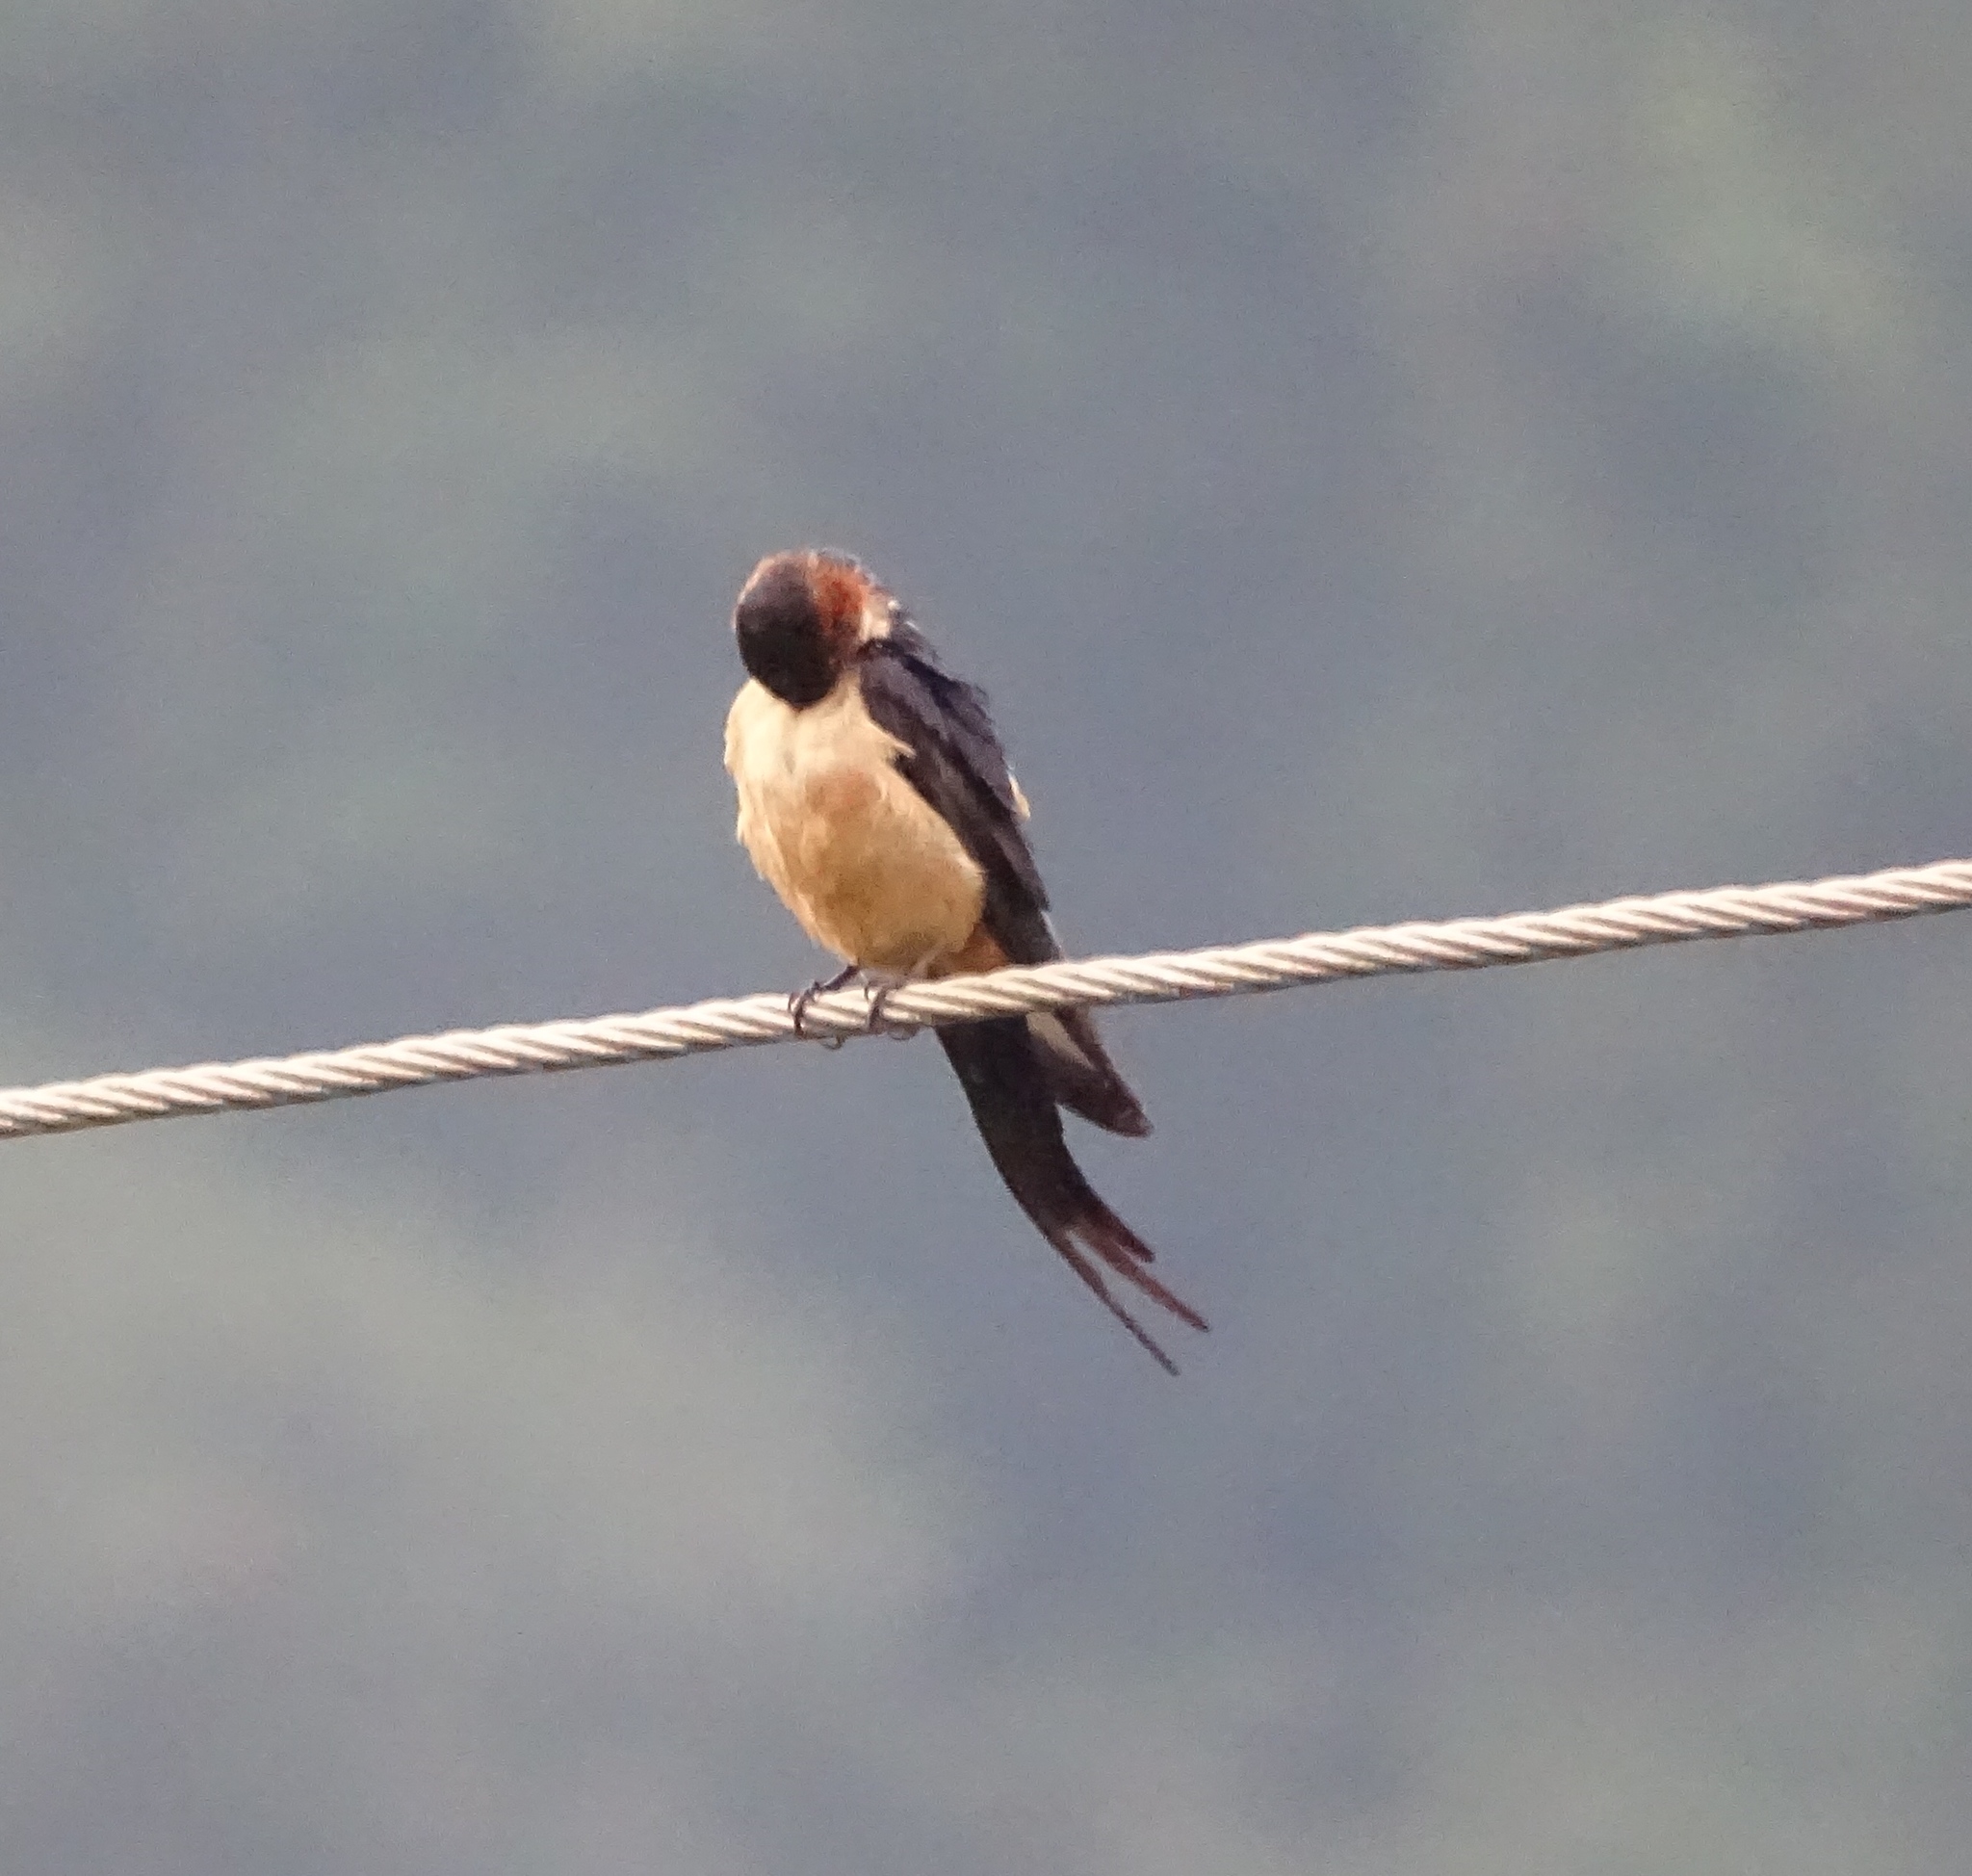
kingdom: Animalia
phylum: Chordata
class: Aves
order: Passeriformes
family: Hirundinidae
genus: Cecropis
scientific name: Cecropis daurica
